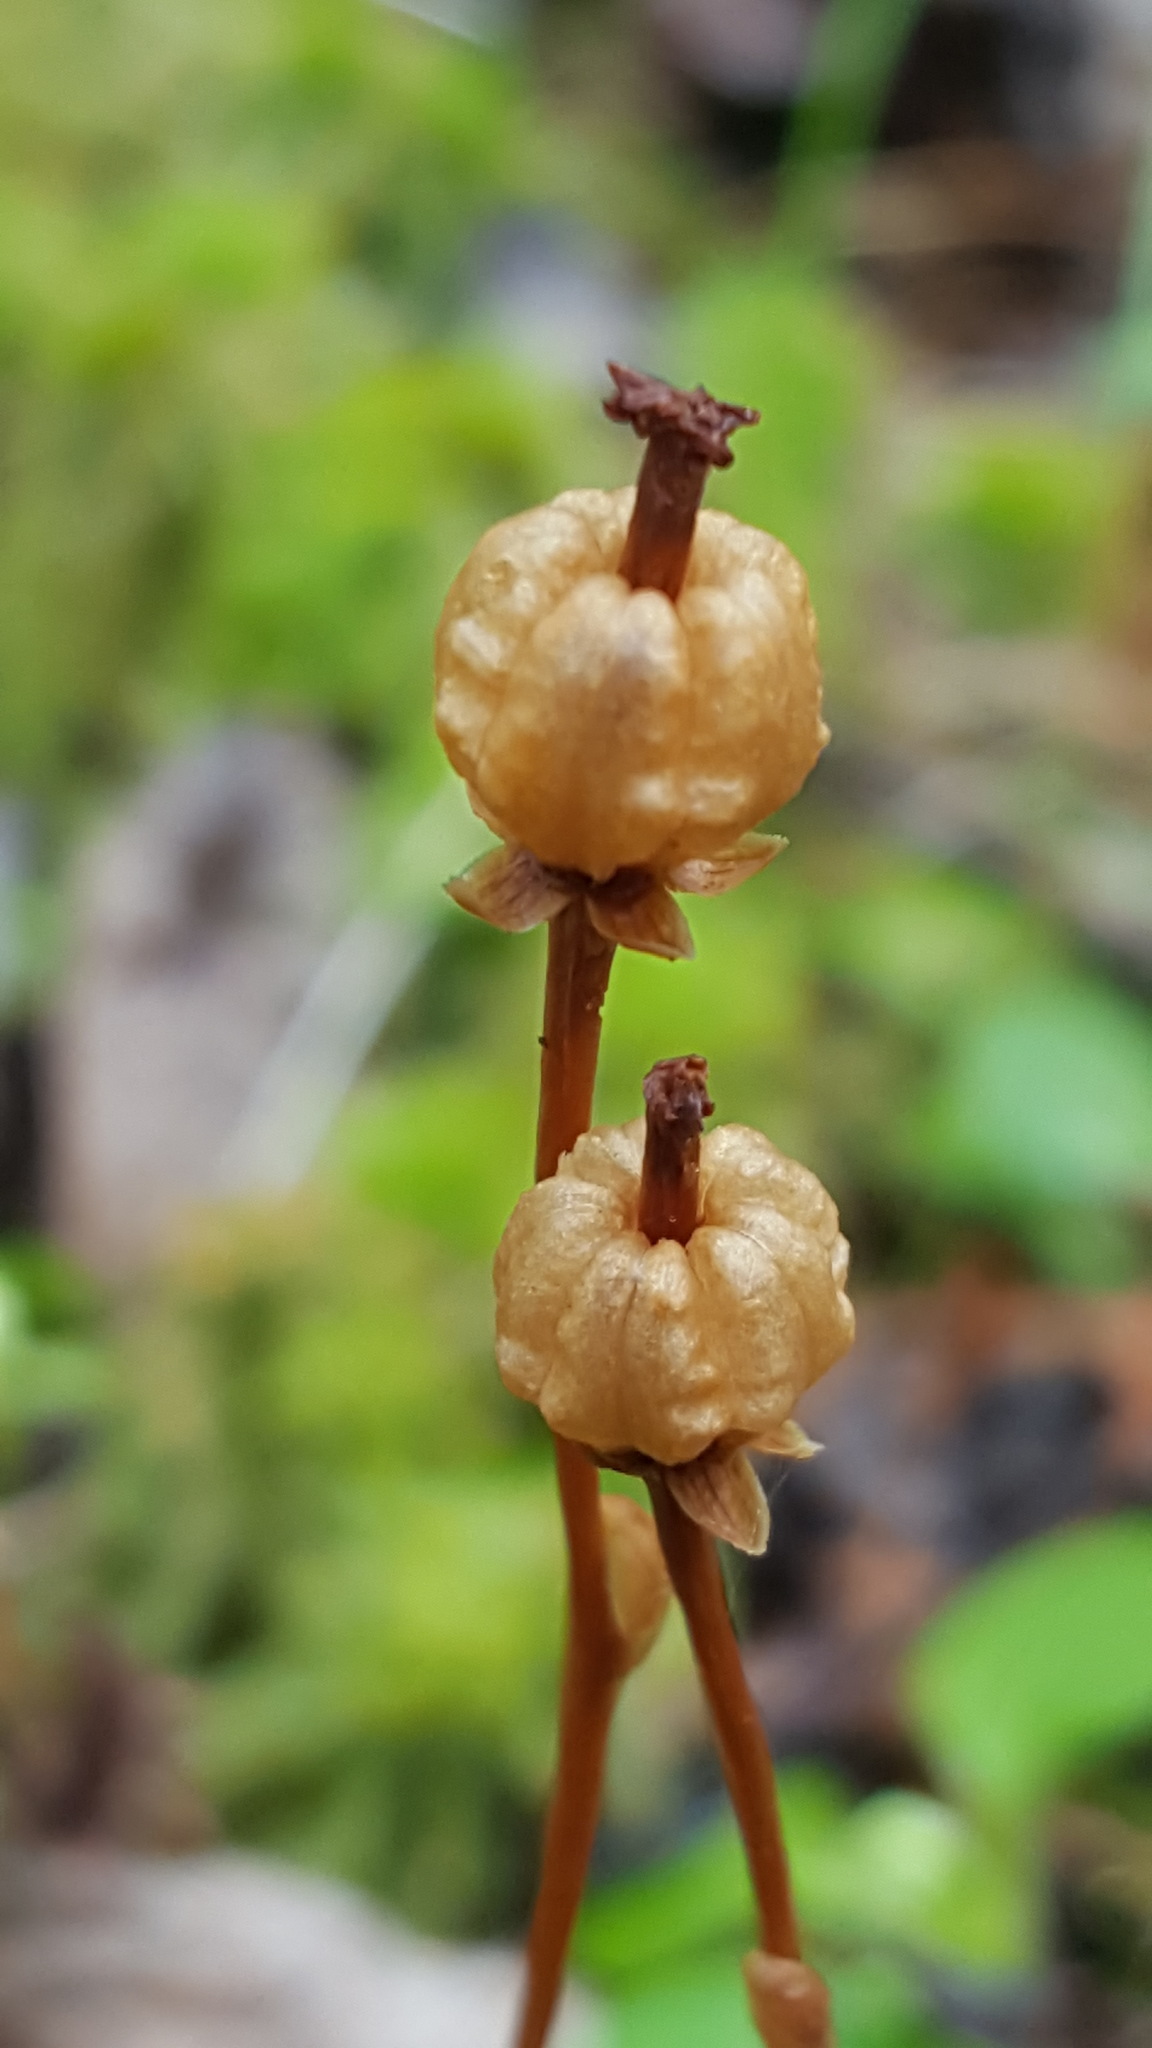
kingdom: Plantae
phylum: Tracheophyta
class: Magnoliopsida
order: Ericales
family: Ericaceae
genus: Moneses
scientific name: Moneses uniflora
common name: One-flowered wintergreen
